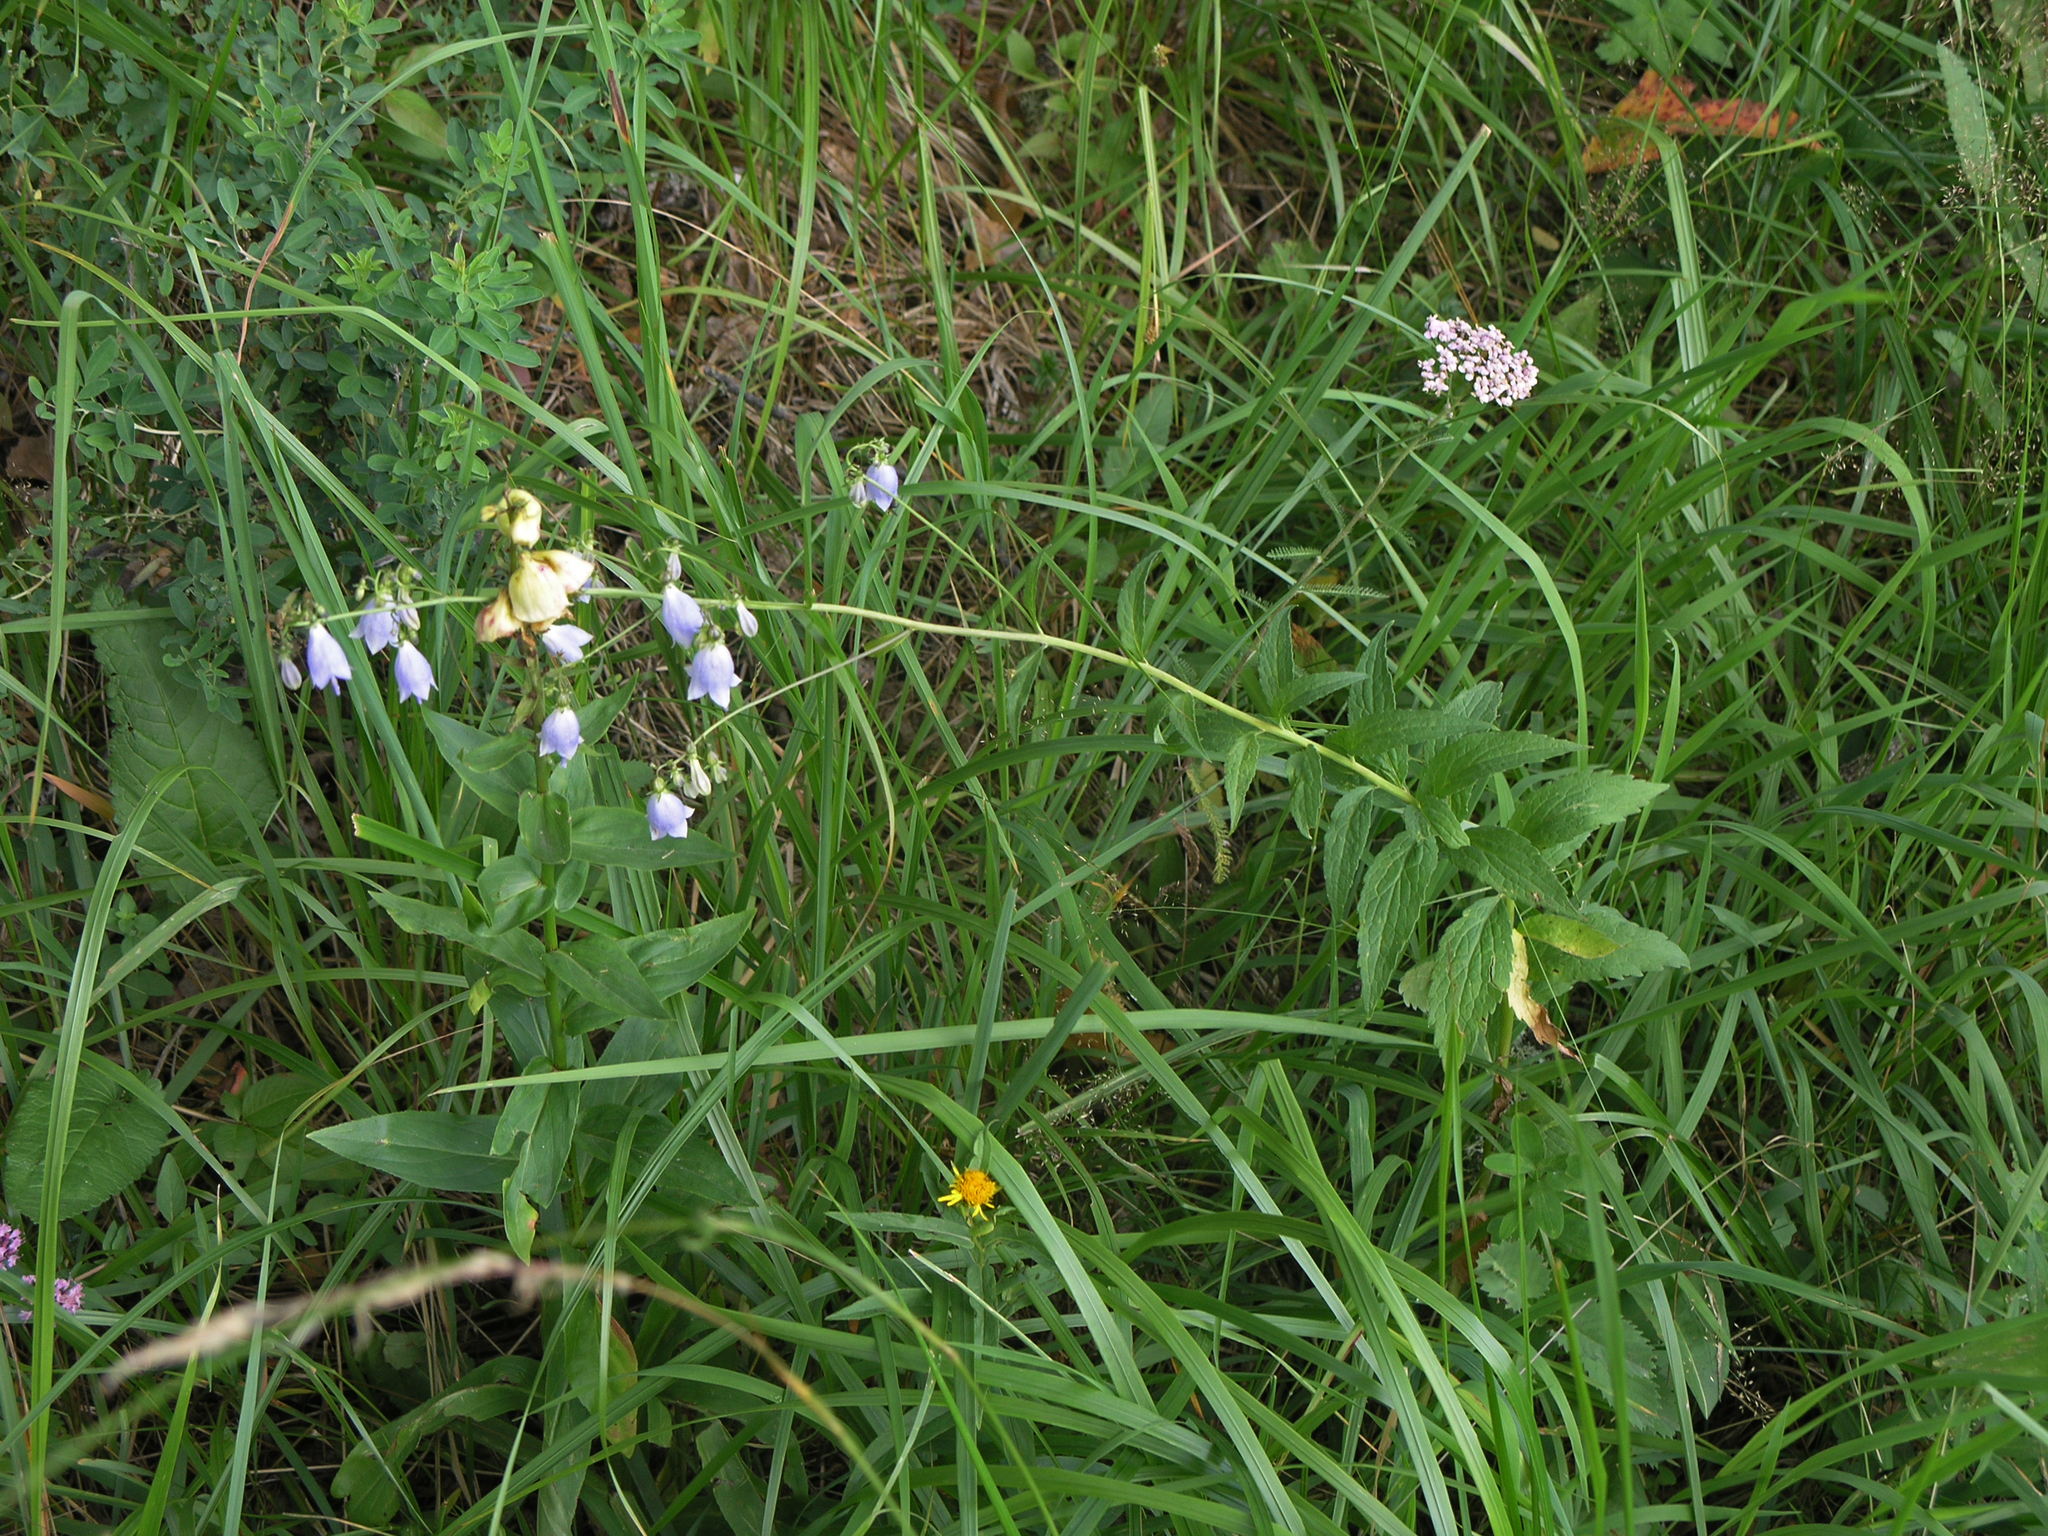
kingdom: Plantae
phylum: Tracheophyta
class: Magnoliopsida
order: Asterales
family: Campanulaceae
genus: Adenophora
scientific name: Adenophora liliifolia
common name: Lilyleaf ladybells
